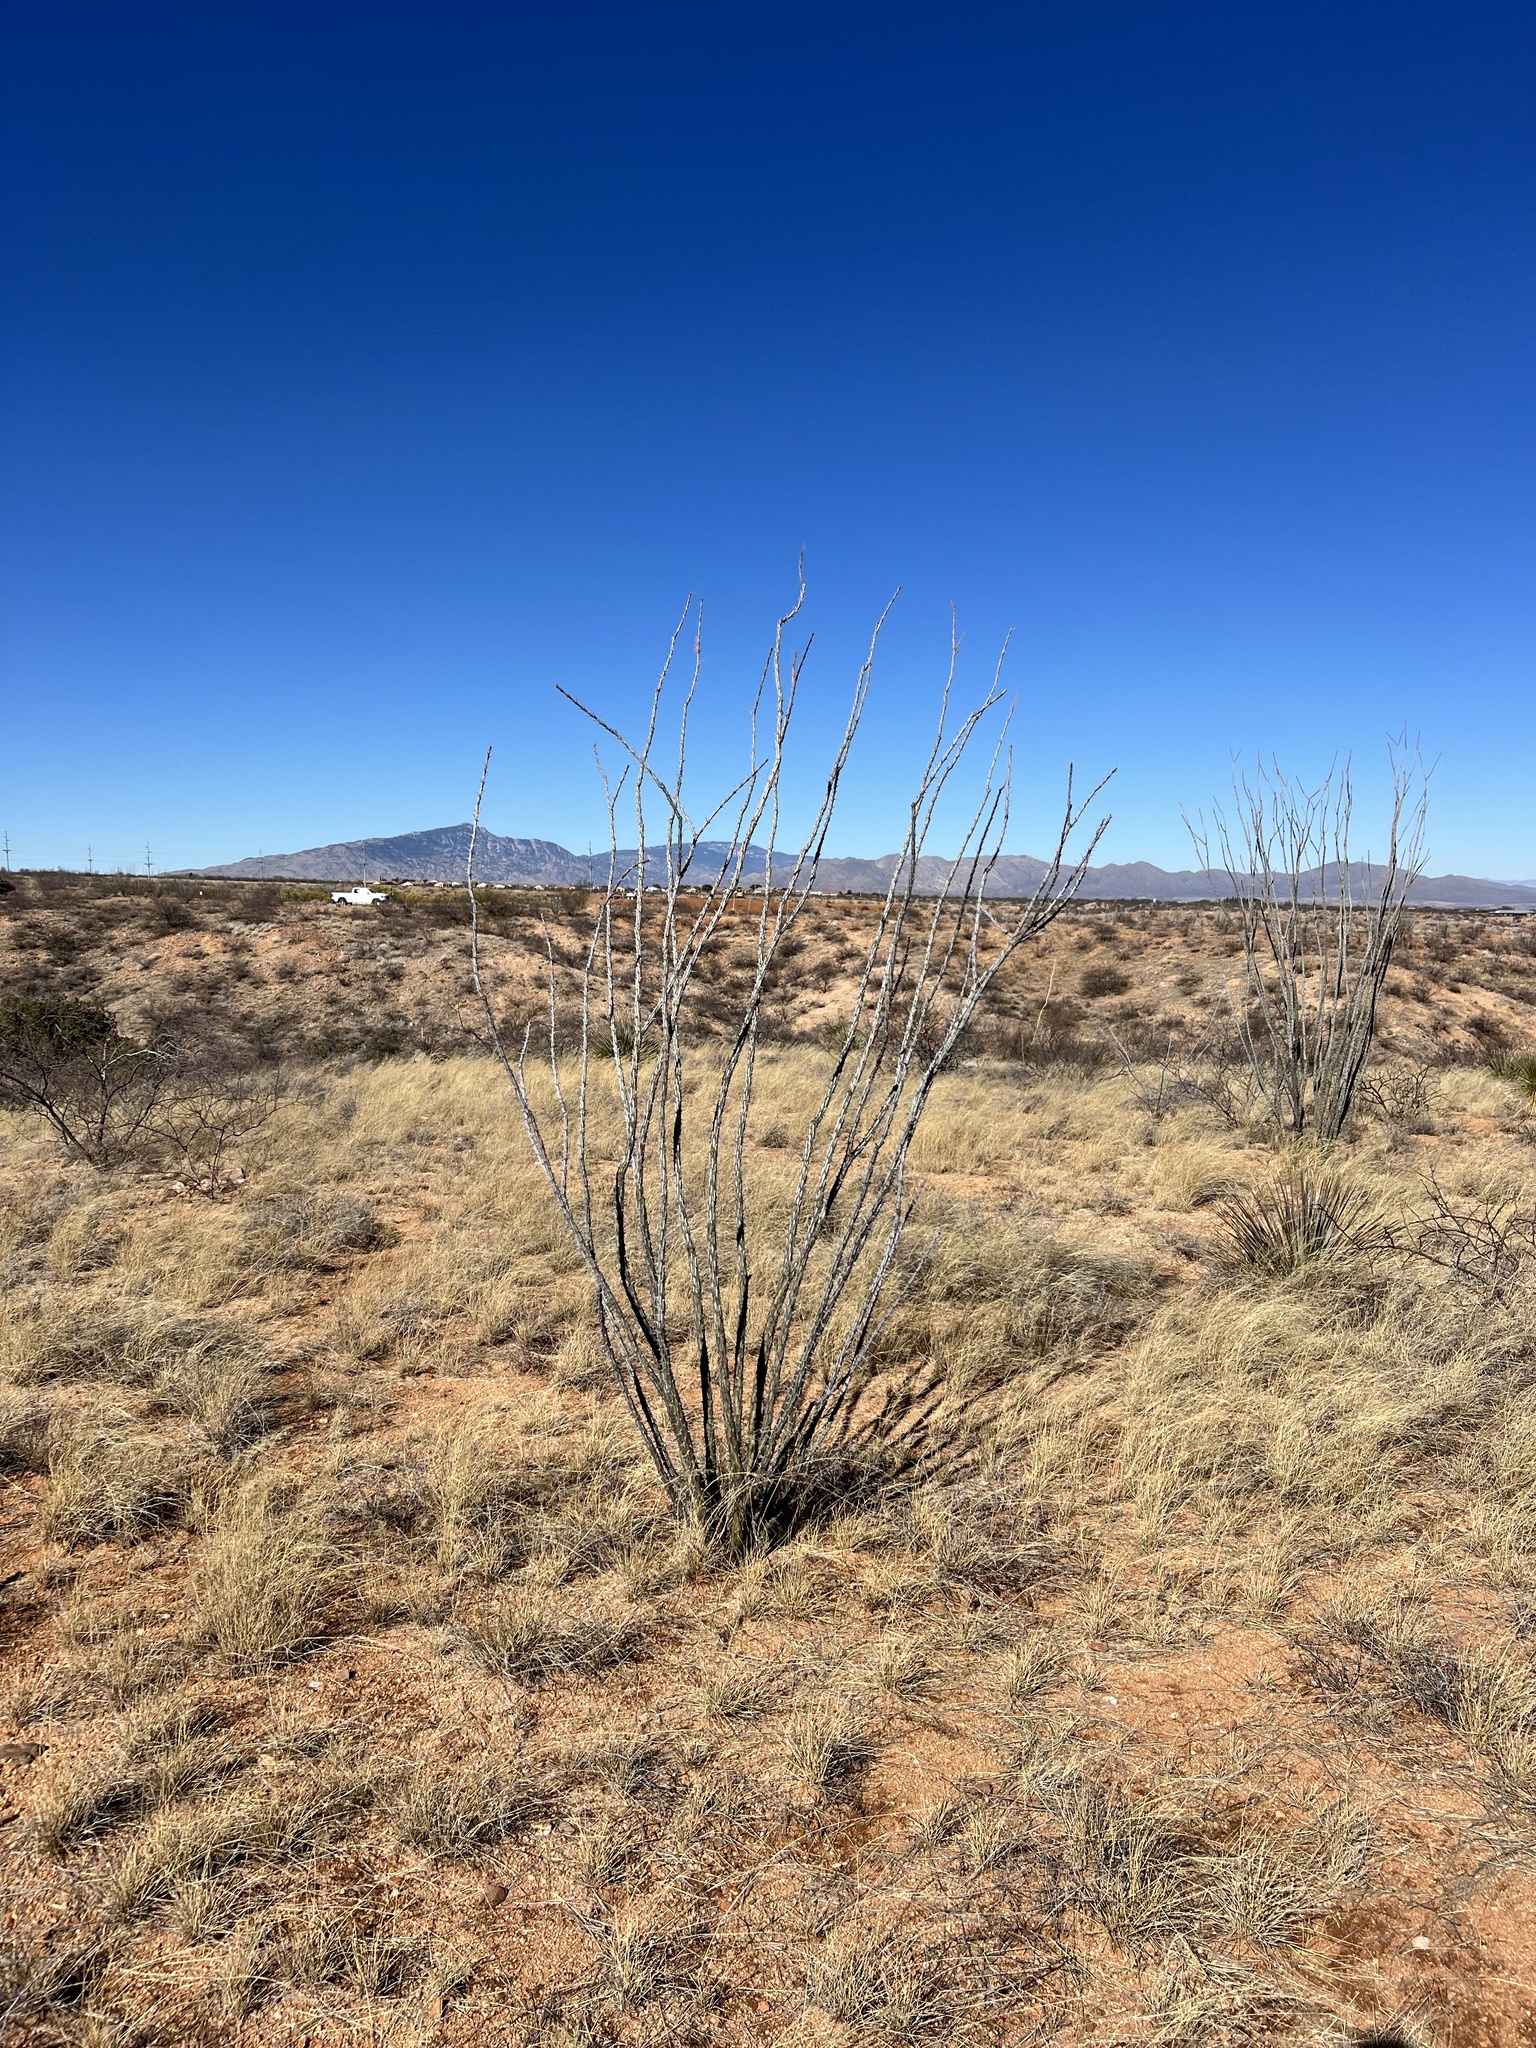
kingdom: Plantae
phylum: Tracheophyta
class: Magnoliopsida
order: Ericales
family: Fouquieriaceae
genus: Fouquieria
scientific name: Fouquieria splendens
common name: Vine-cactus
